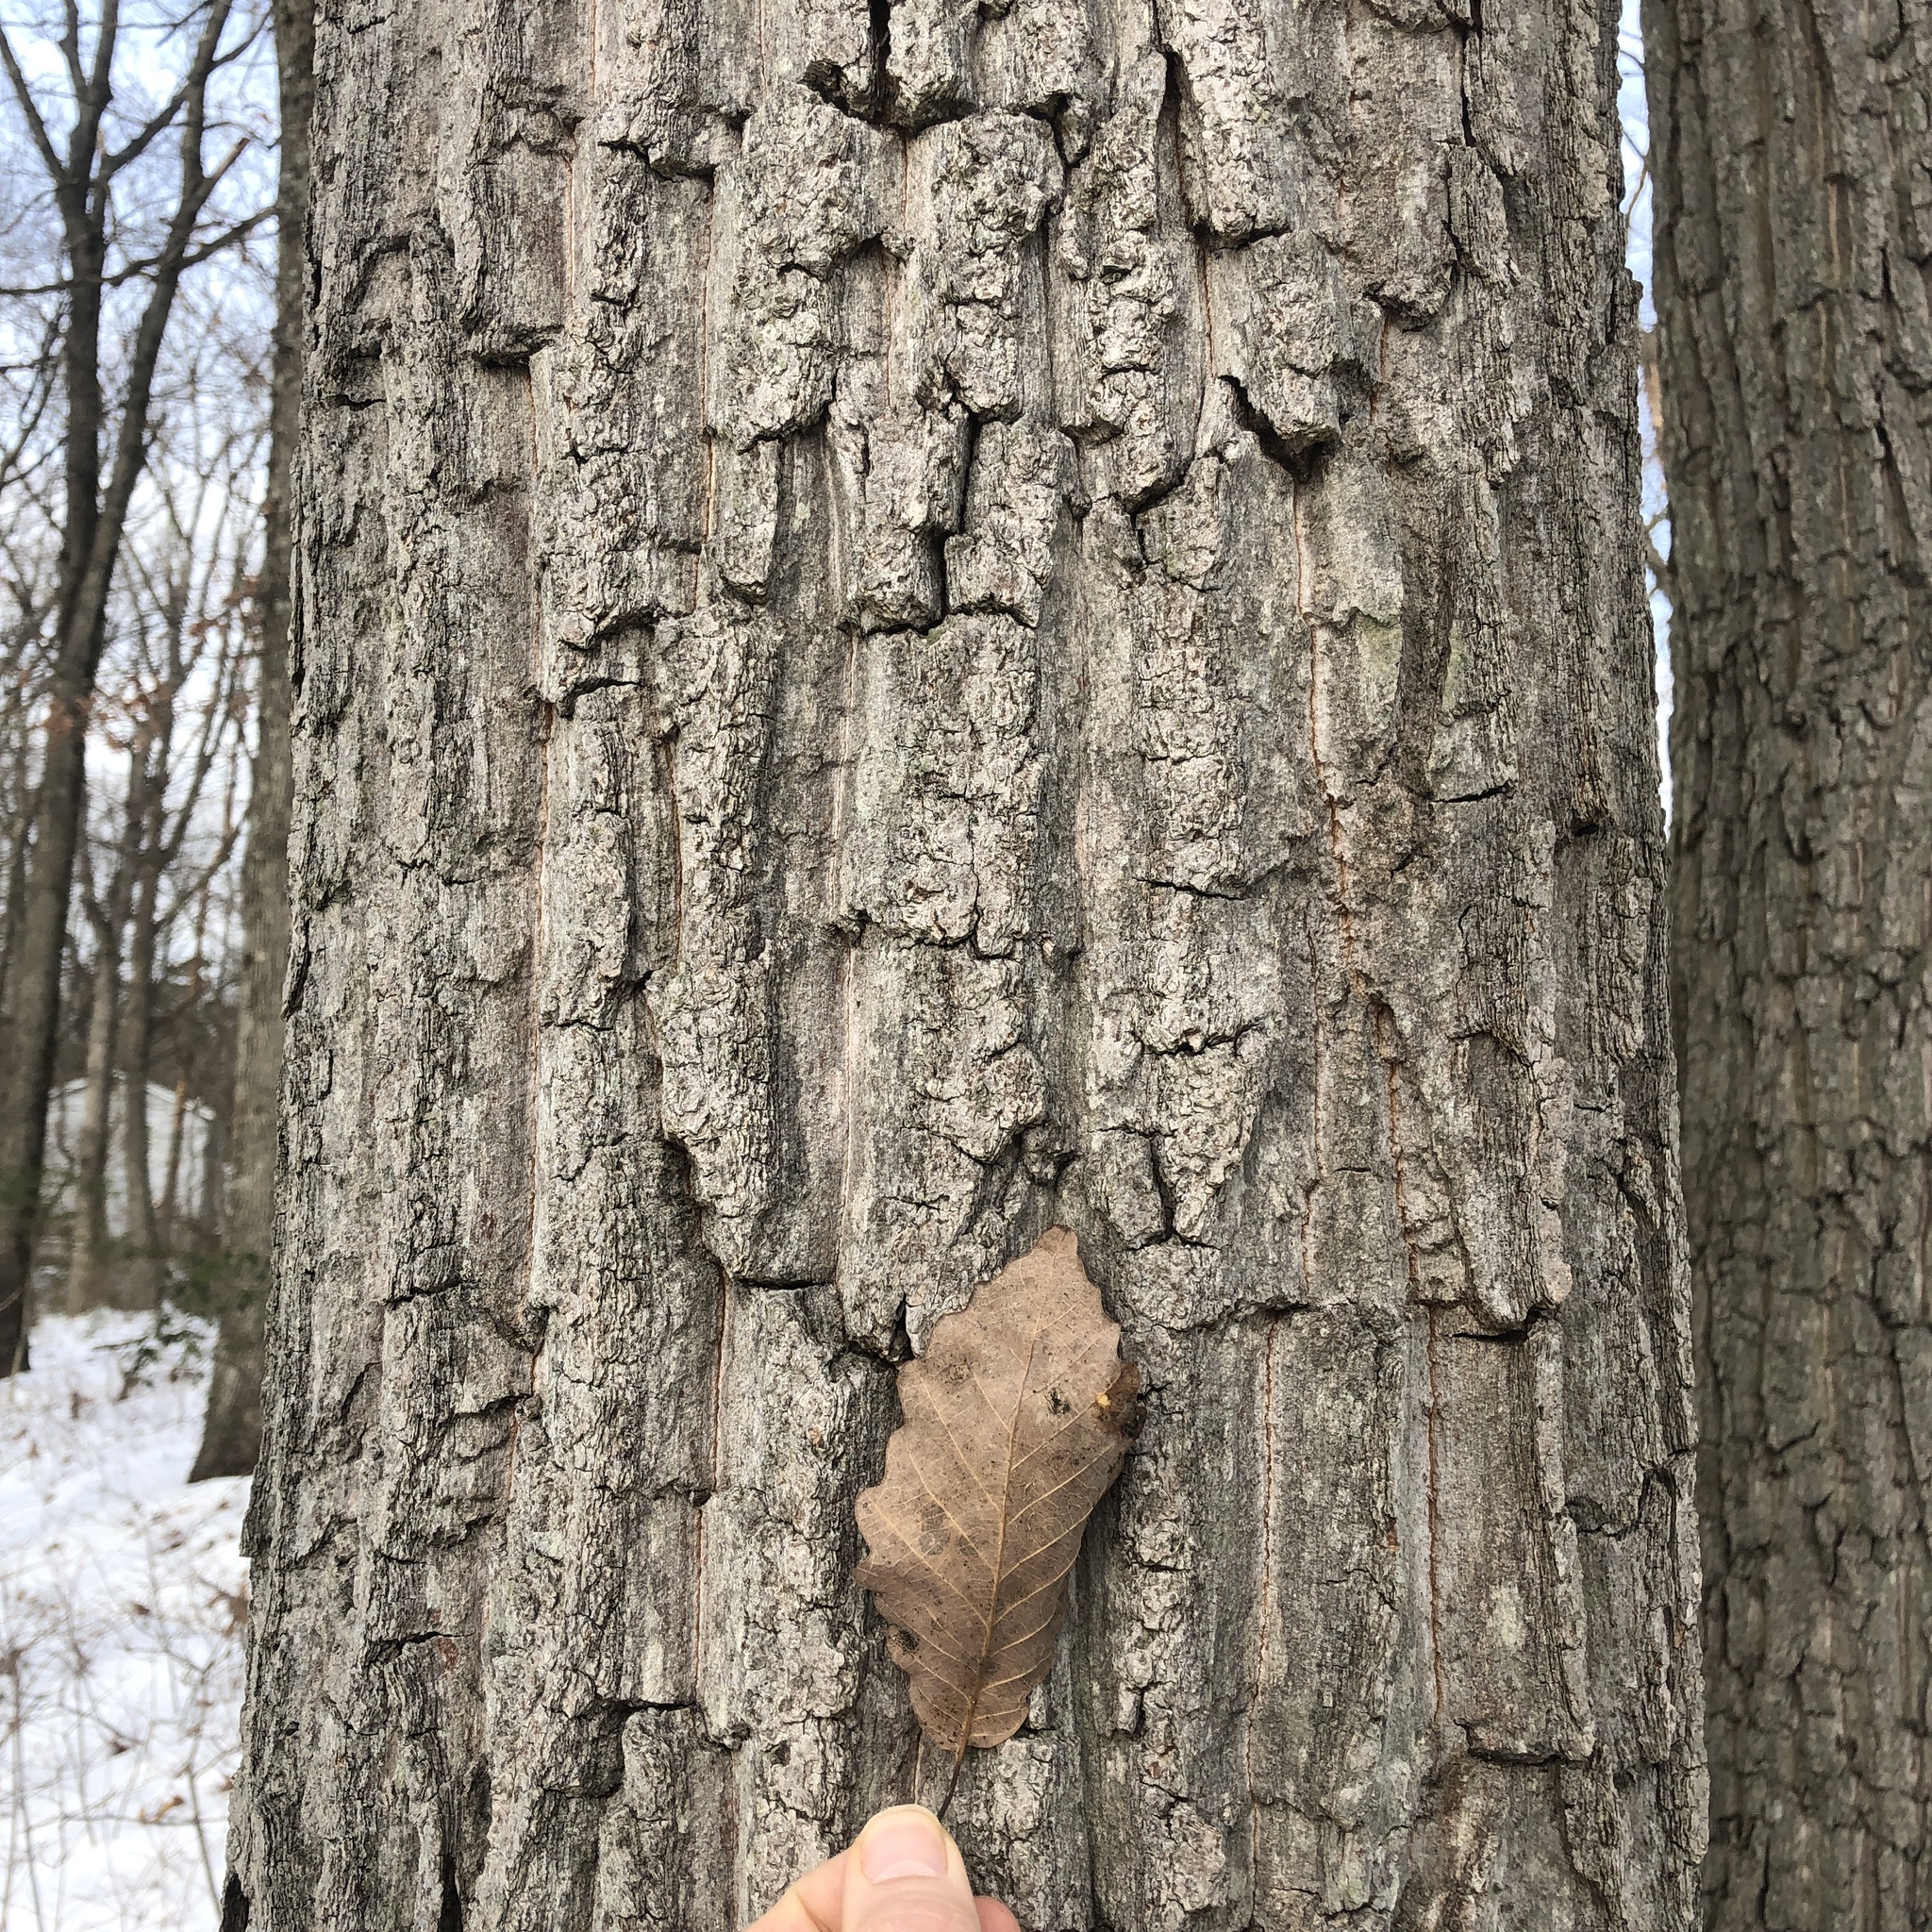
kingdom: Plantae
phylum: Tracheophyta
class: Magnoliopsida
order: Fagales
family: Fagaceae
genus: Quercus
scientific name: Quercus montana
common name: Chestnut oak
